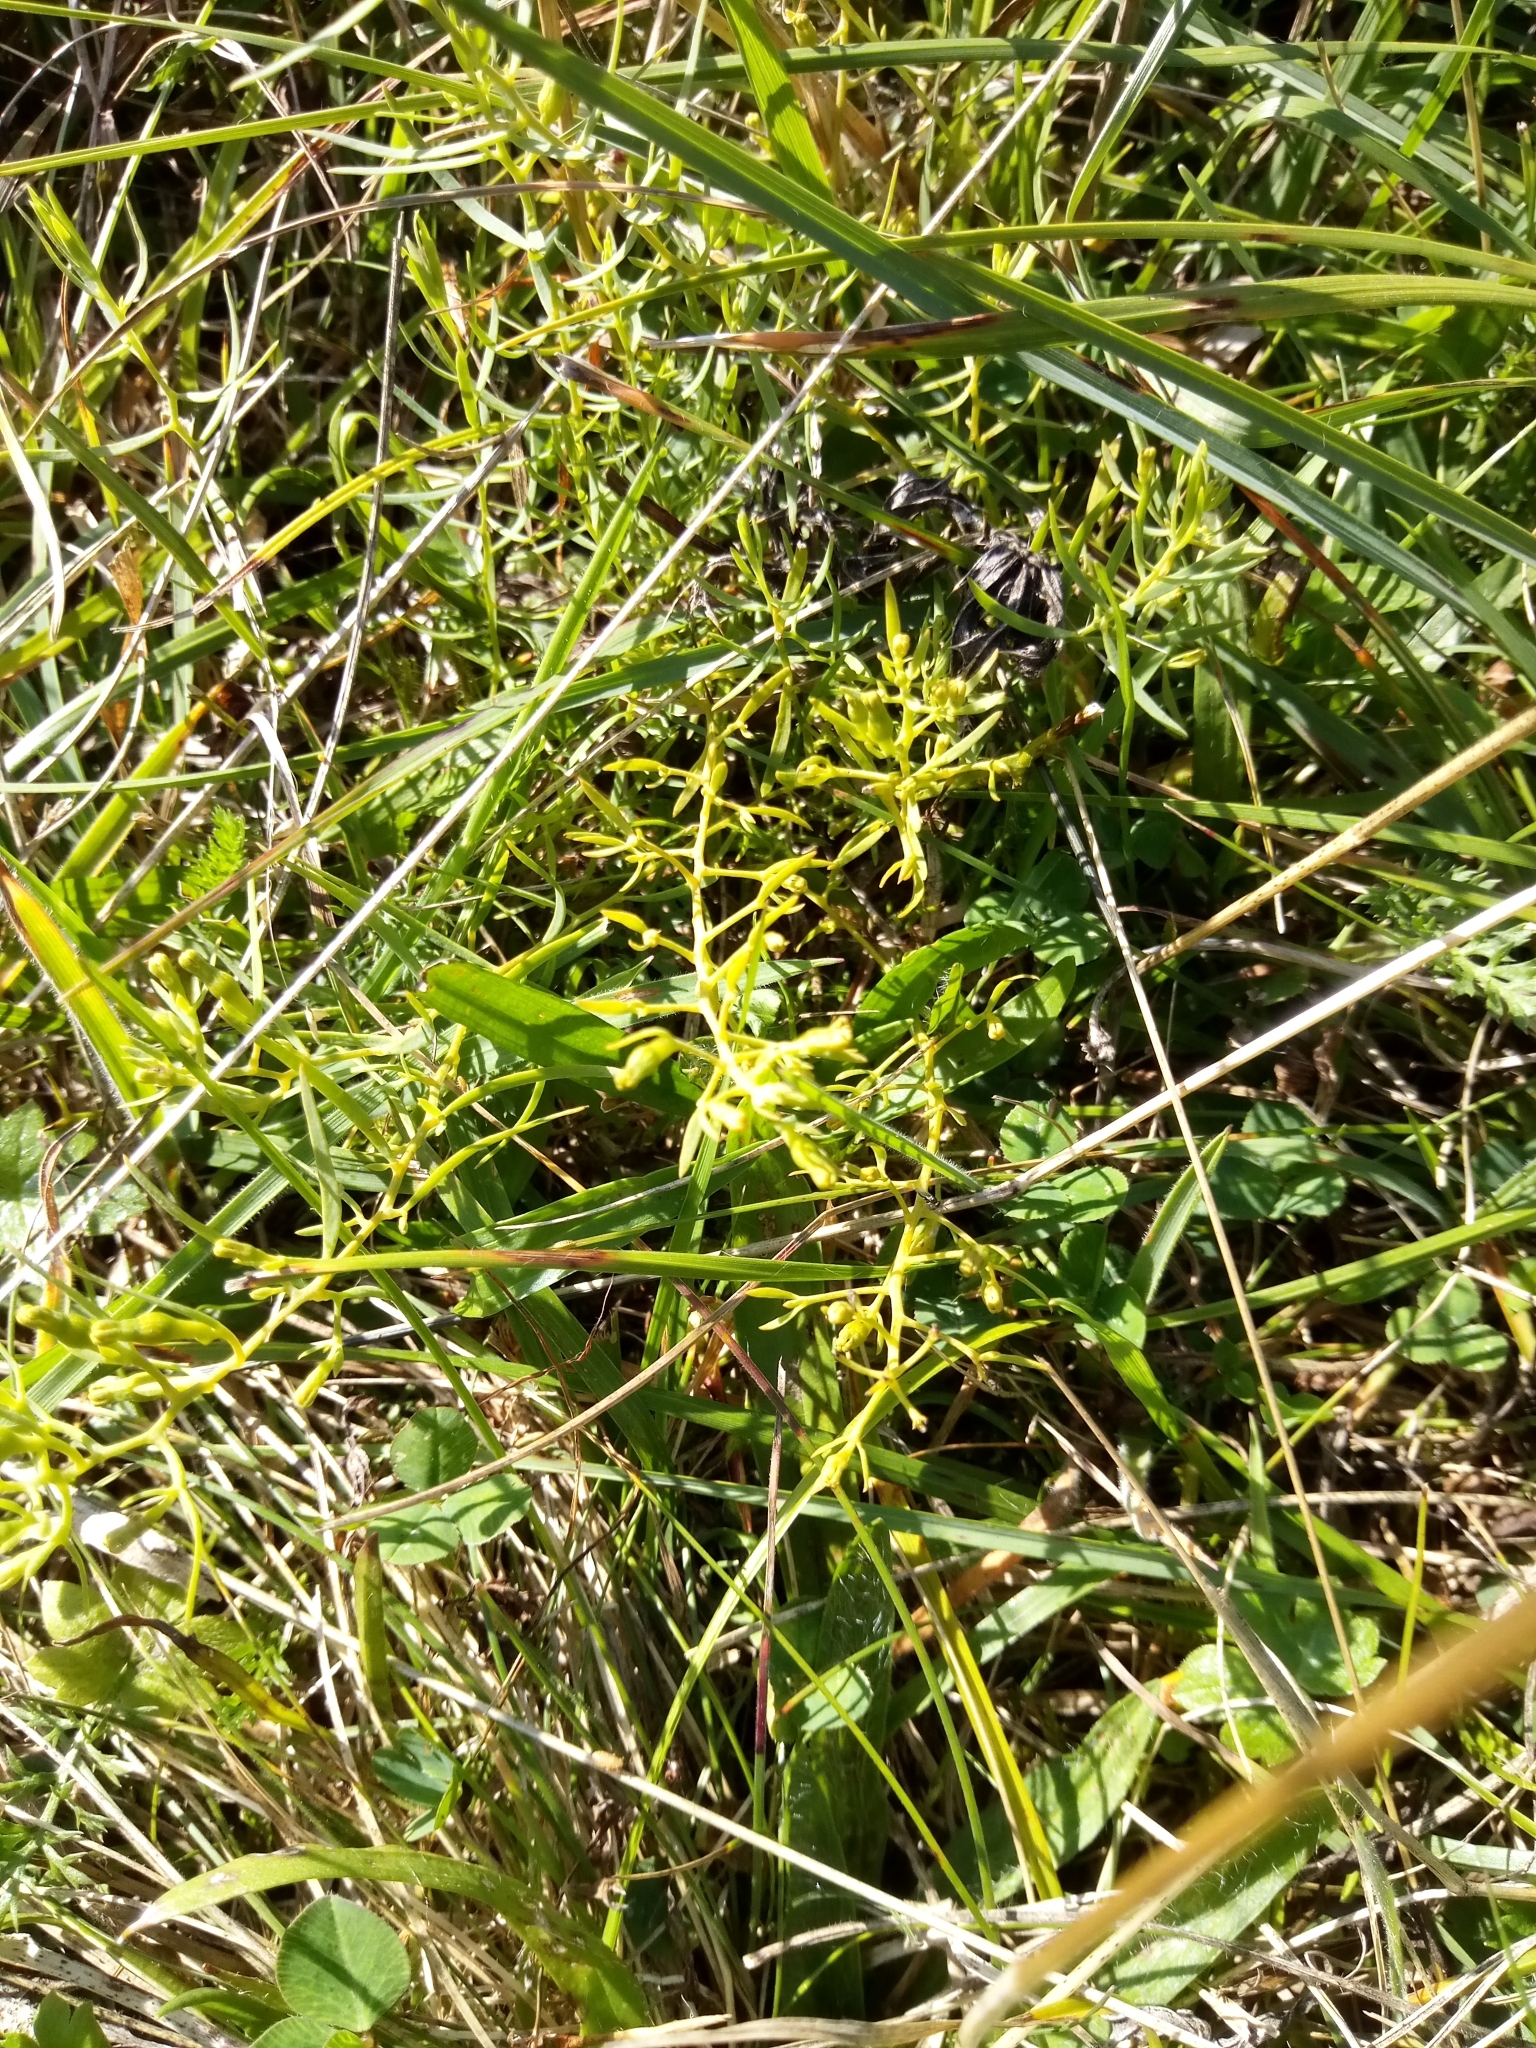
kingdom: Plantae
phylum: Tracheophyta
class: Magnoliopsida
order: Santalales
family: Thesiaceae
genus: Thesium
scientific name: Thesium pyrenaicum
